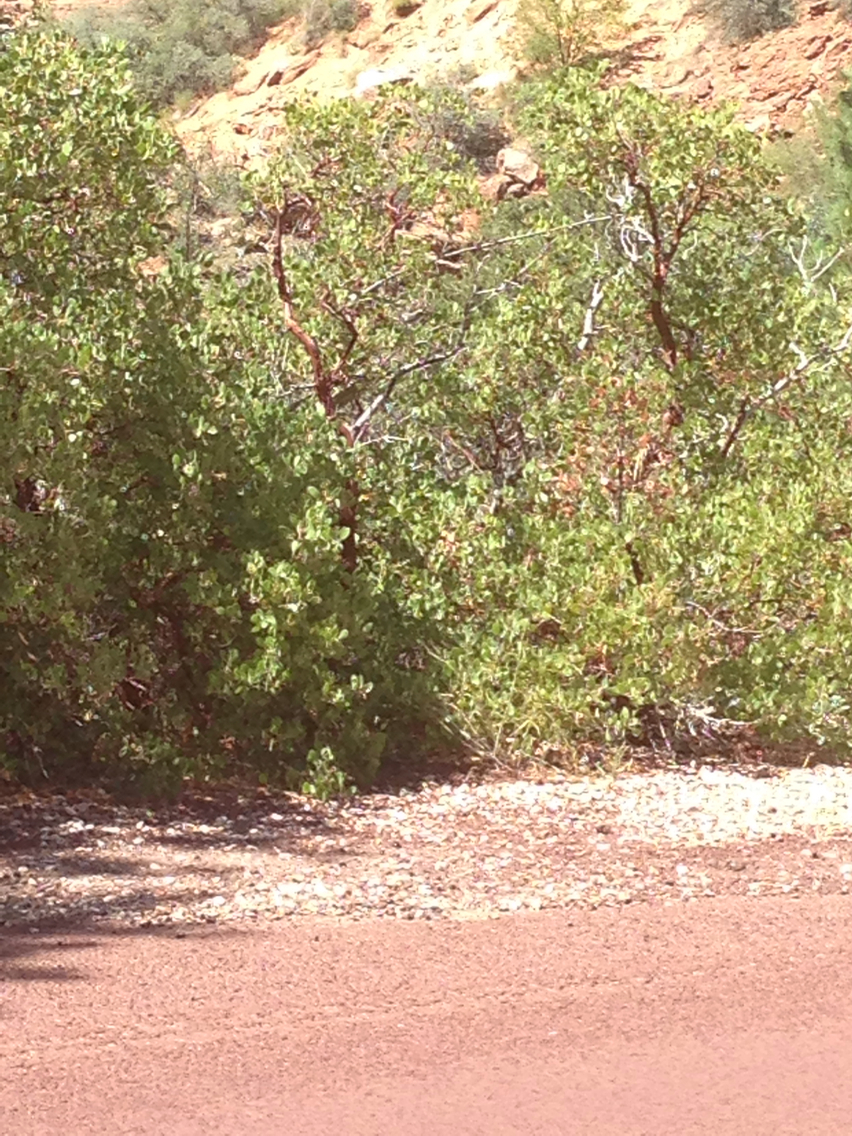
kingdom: Plantae
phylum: Tracheophyta
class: Magnoliopsida
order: Ericales
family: Ericaceae
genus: Arctostaphylos
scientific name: Arctostaphylos pungens
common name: Mexican manzanita
